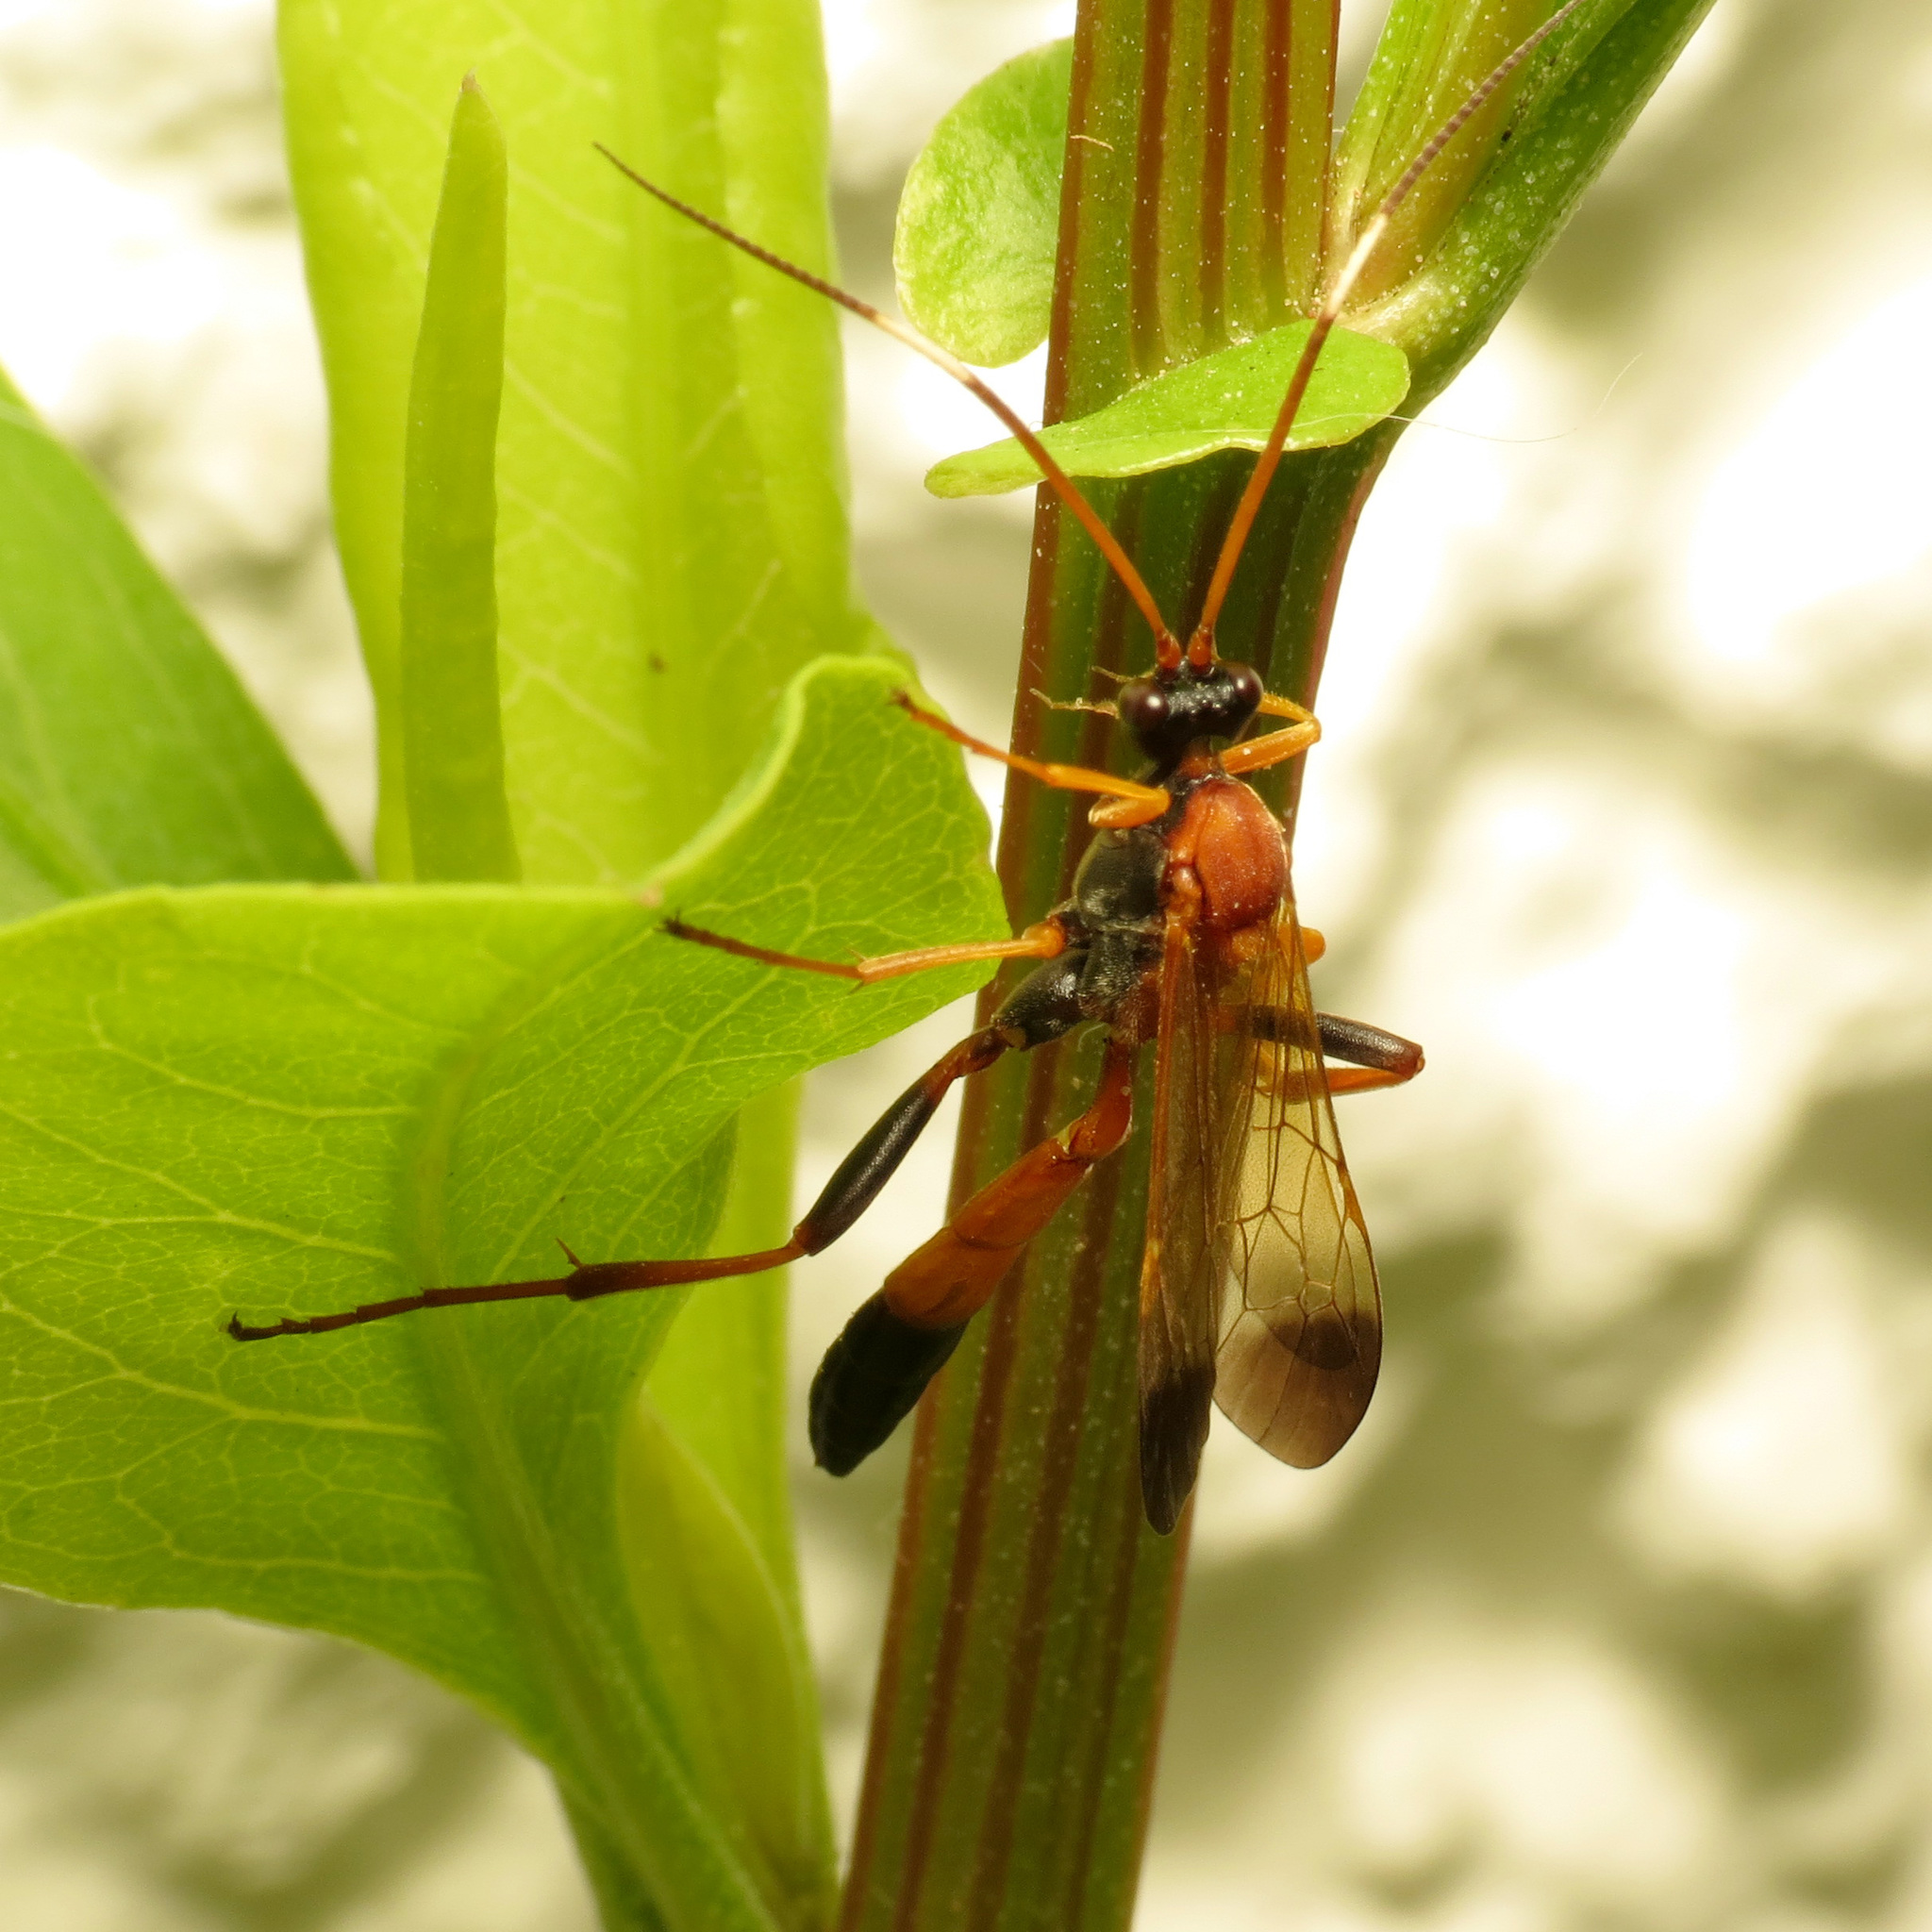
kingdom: Animalia
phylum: Arthropoda
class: Insecta
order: Hymenoptera
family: Ichneumonidae
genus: Ctenochares
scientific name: Ctenochares bicolorus
